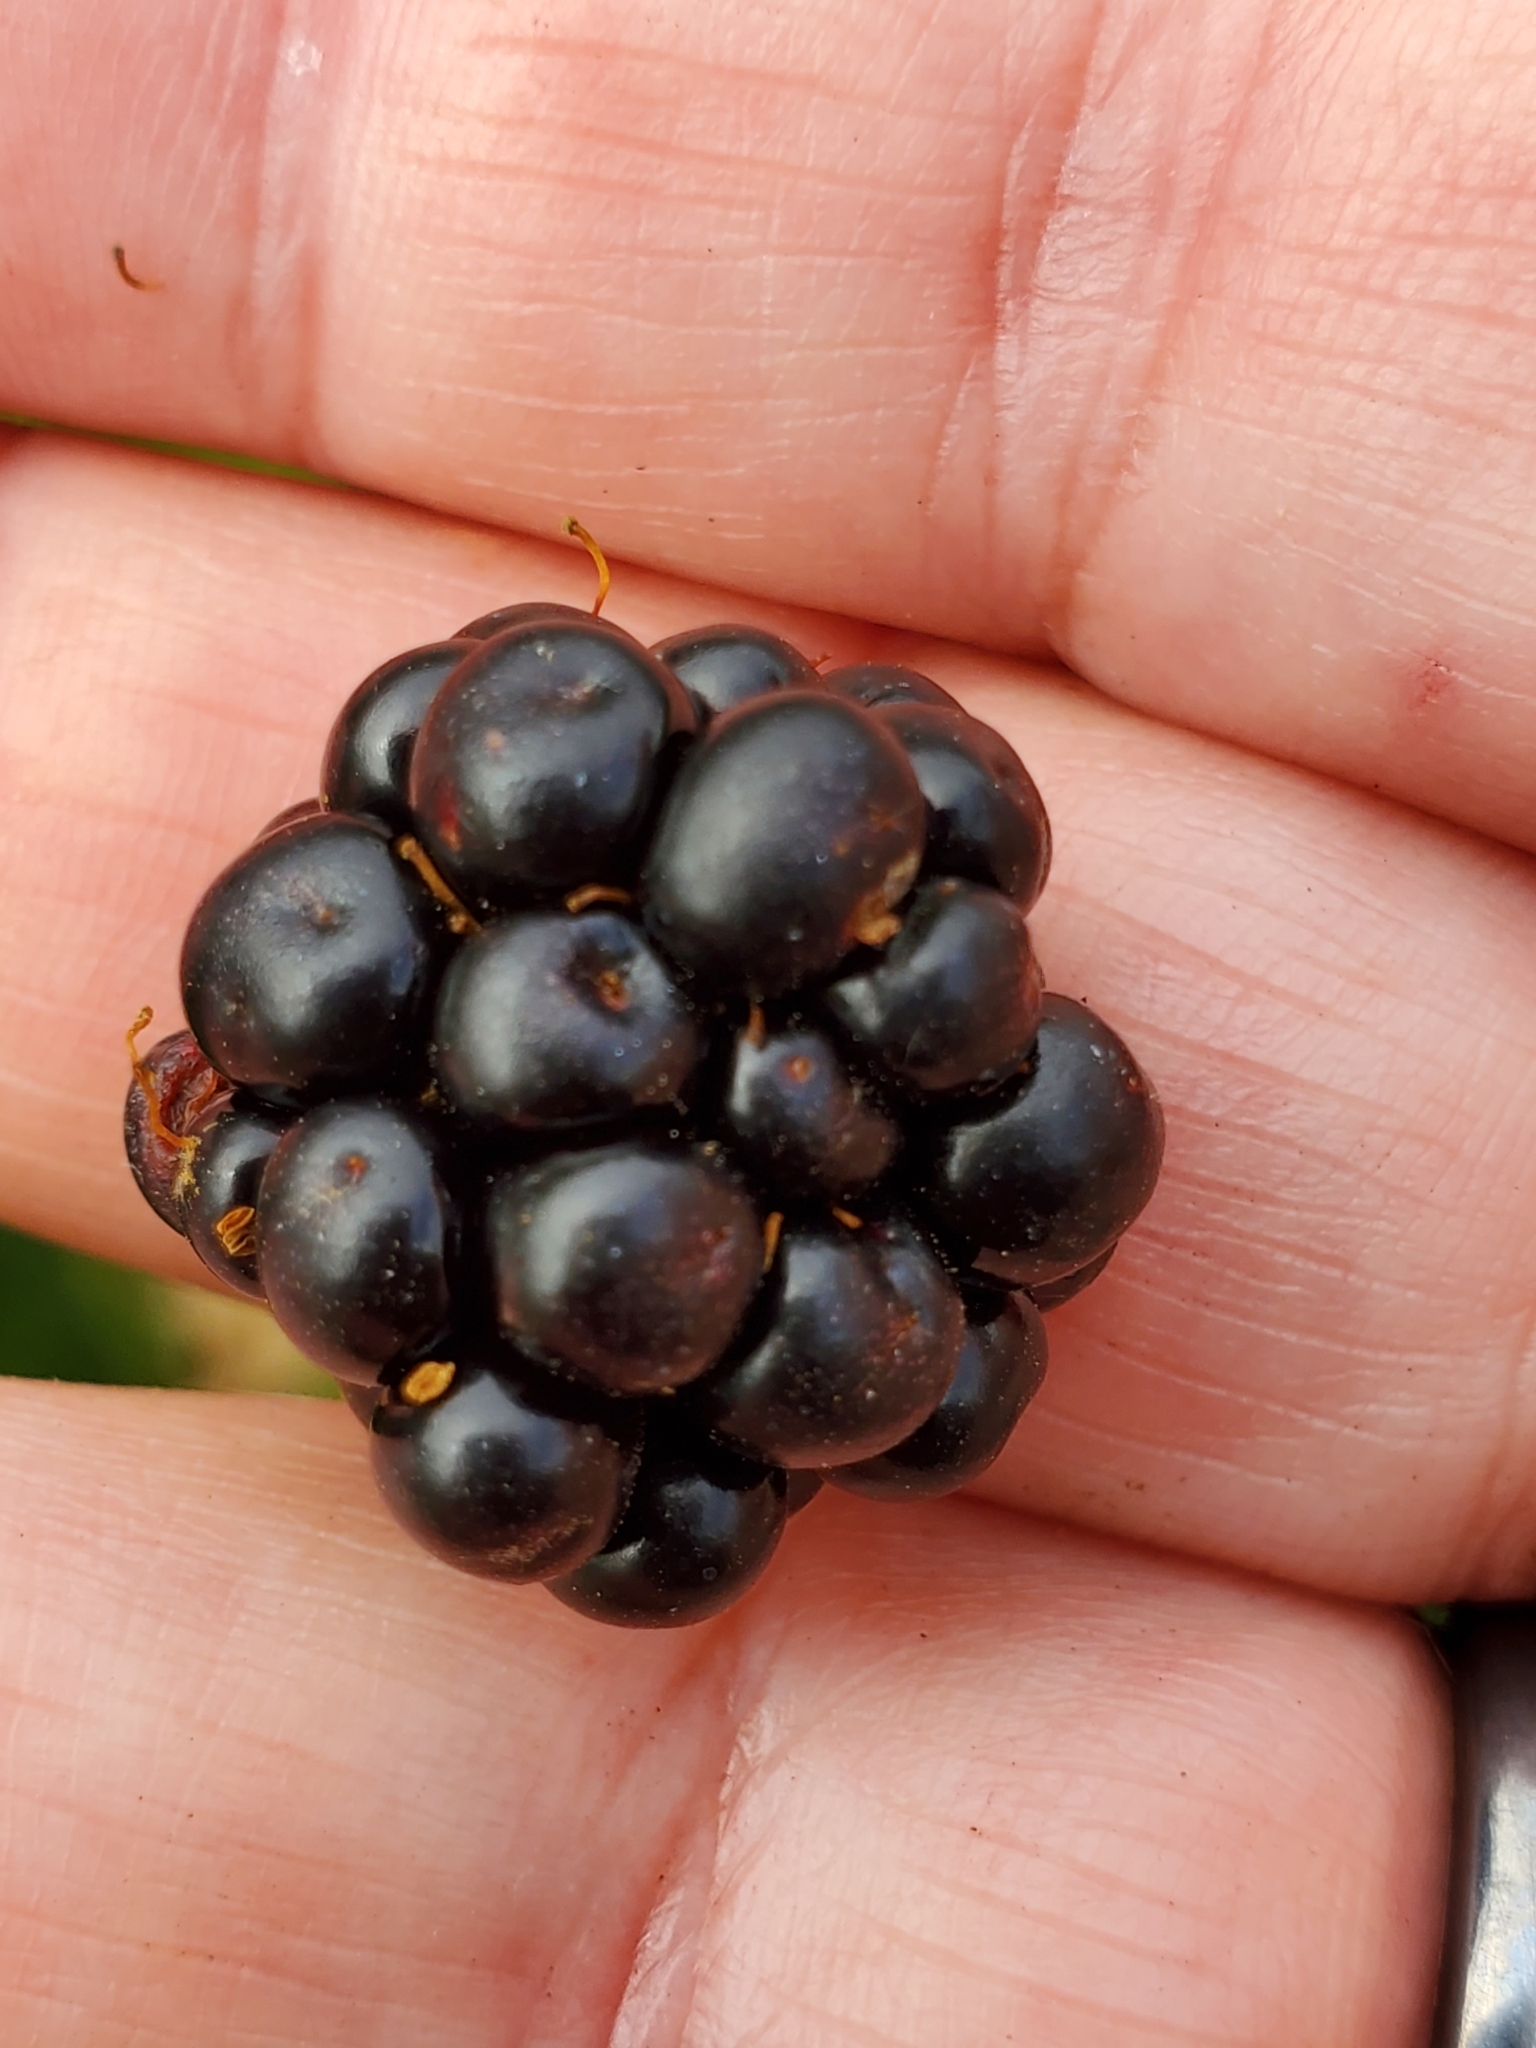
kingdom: Plantae
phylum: Tracheophyta
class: Magnoliopsida
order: Rosales
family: Rosaceae
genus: Rubus
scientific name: Rubus bifrons
